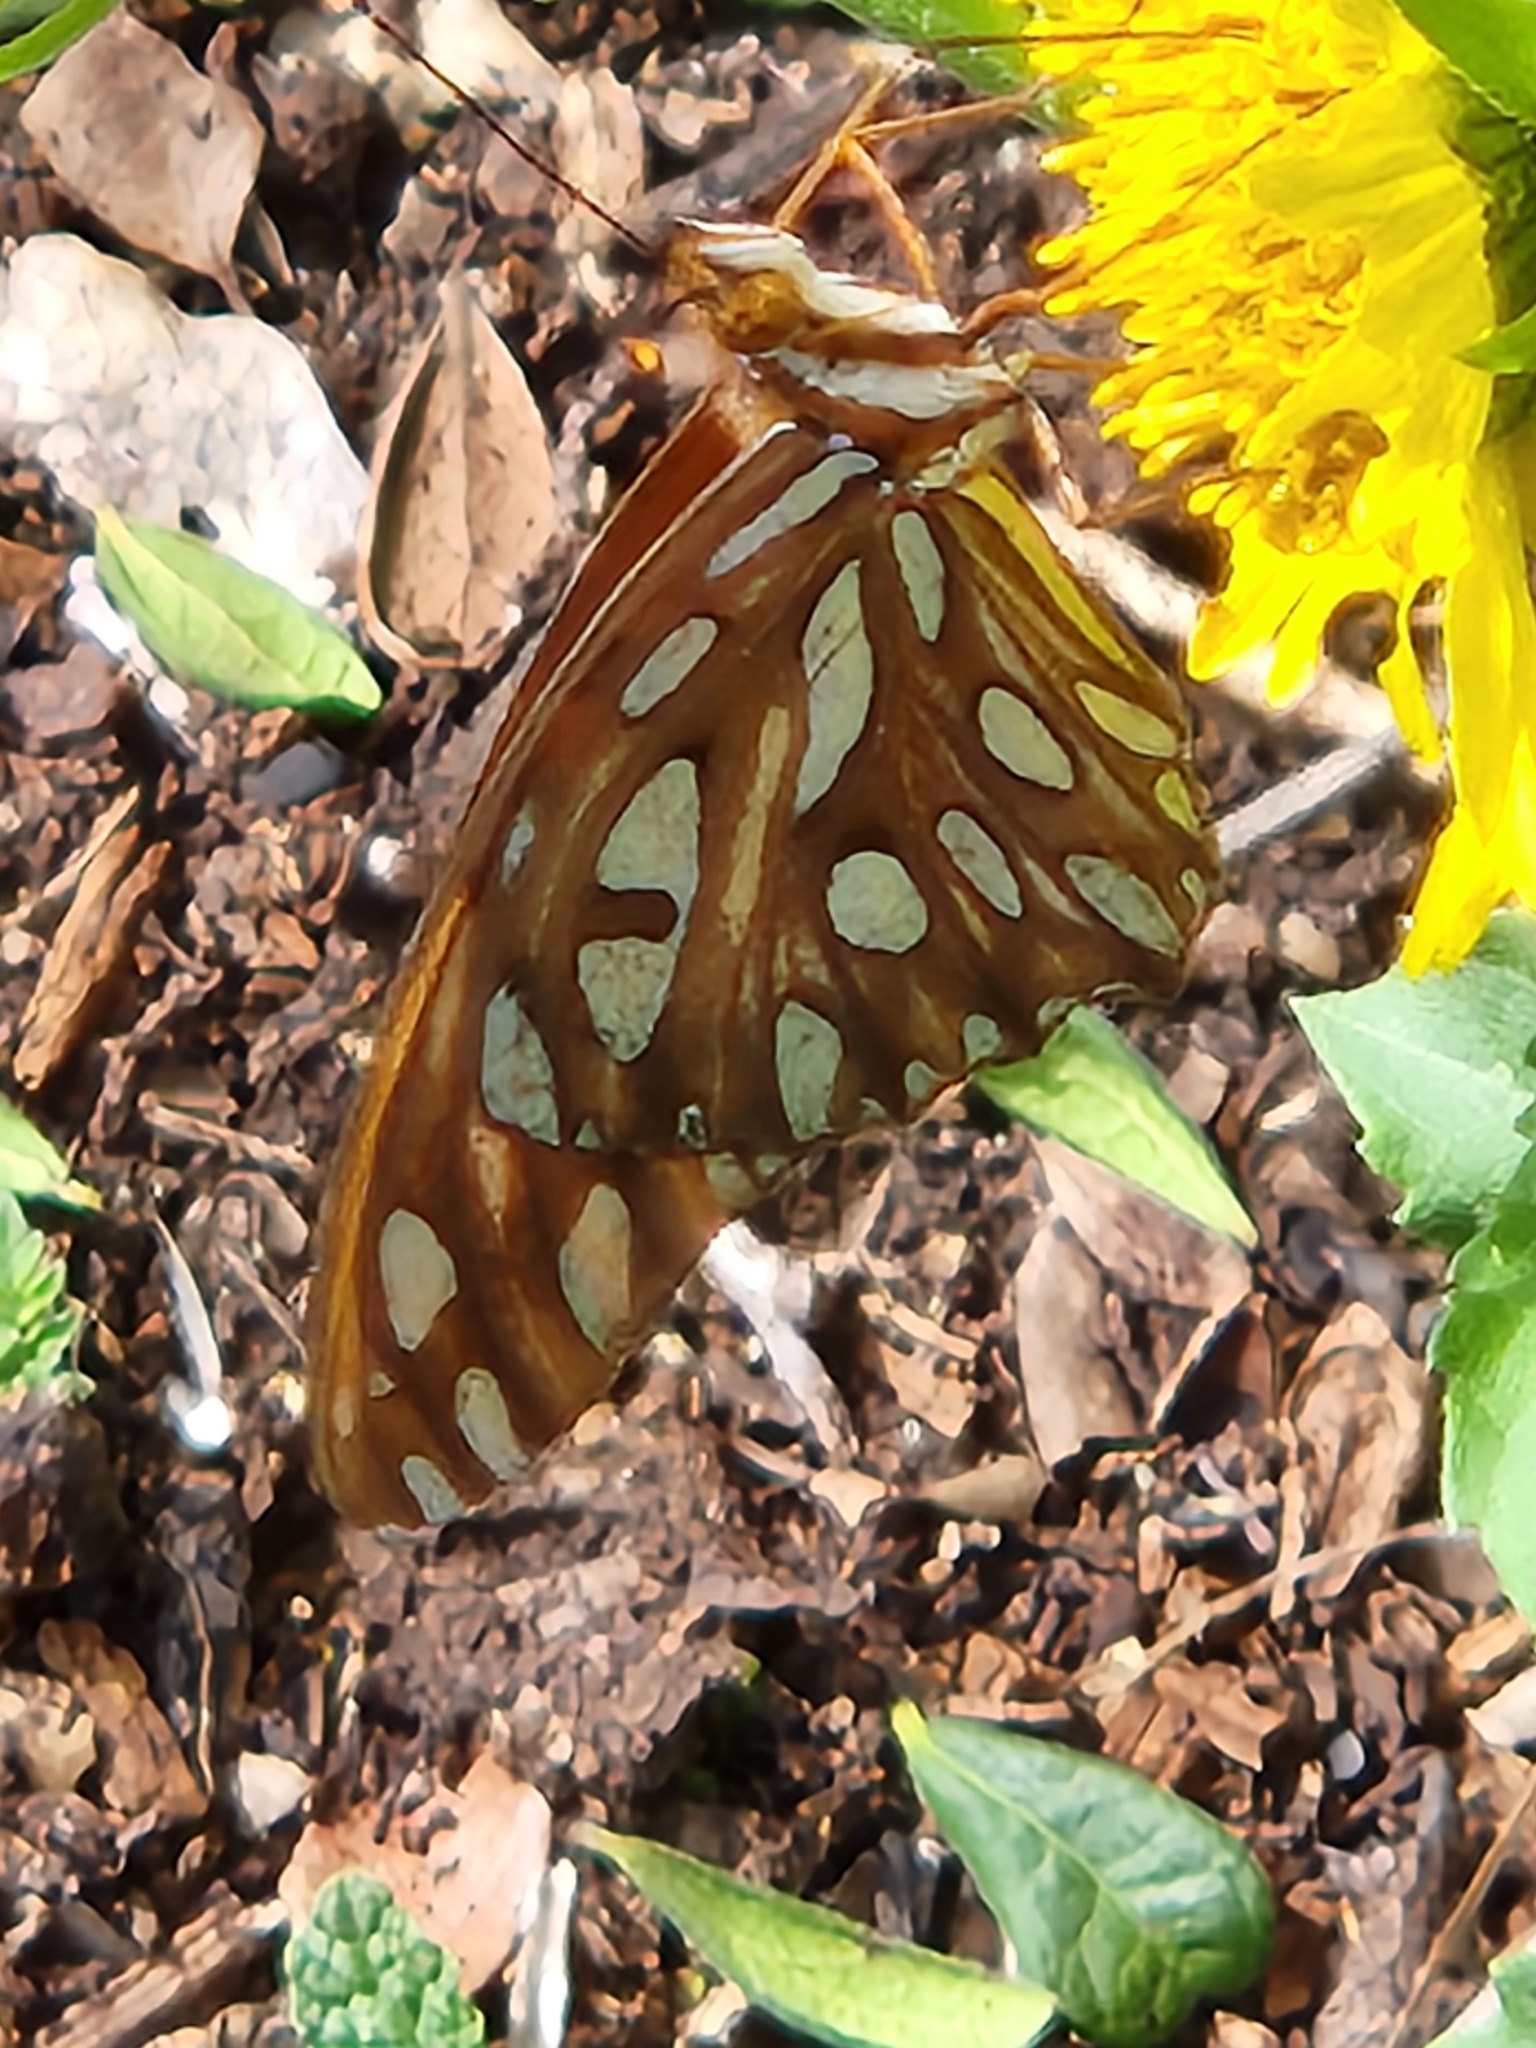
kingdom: Animalia
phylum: Arthropoda
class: Insecta
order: Lepidoptera
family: Nymphalidae
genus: Dione
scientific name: Dione vanillae
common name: Gulf fritillary
